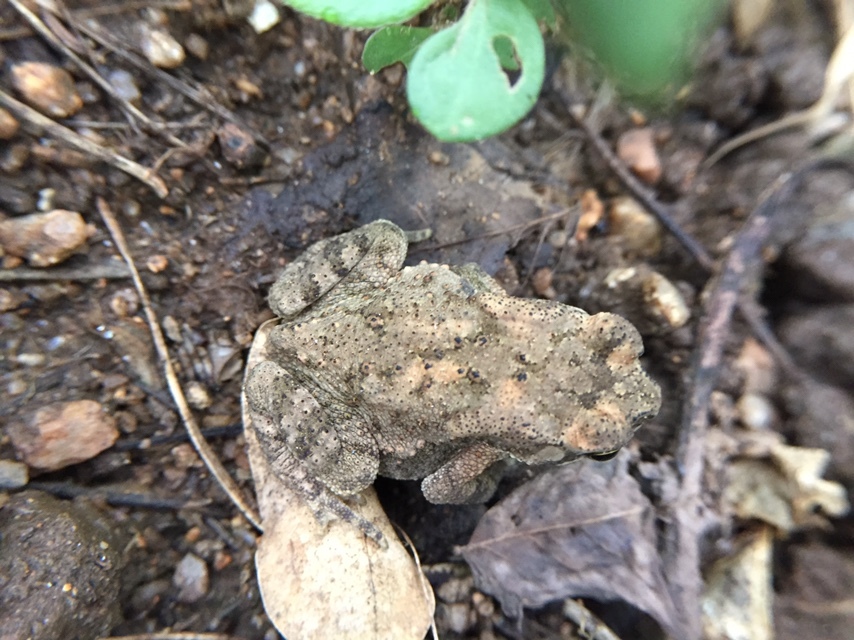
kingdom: Animalia
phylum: Chordata
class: Amphibia
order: Anura
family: Bufonidae
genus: Duttaphrynus
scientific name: Duttaphrynus melanostictus
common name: Common sunda toad
